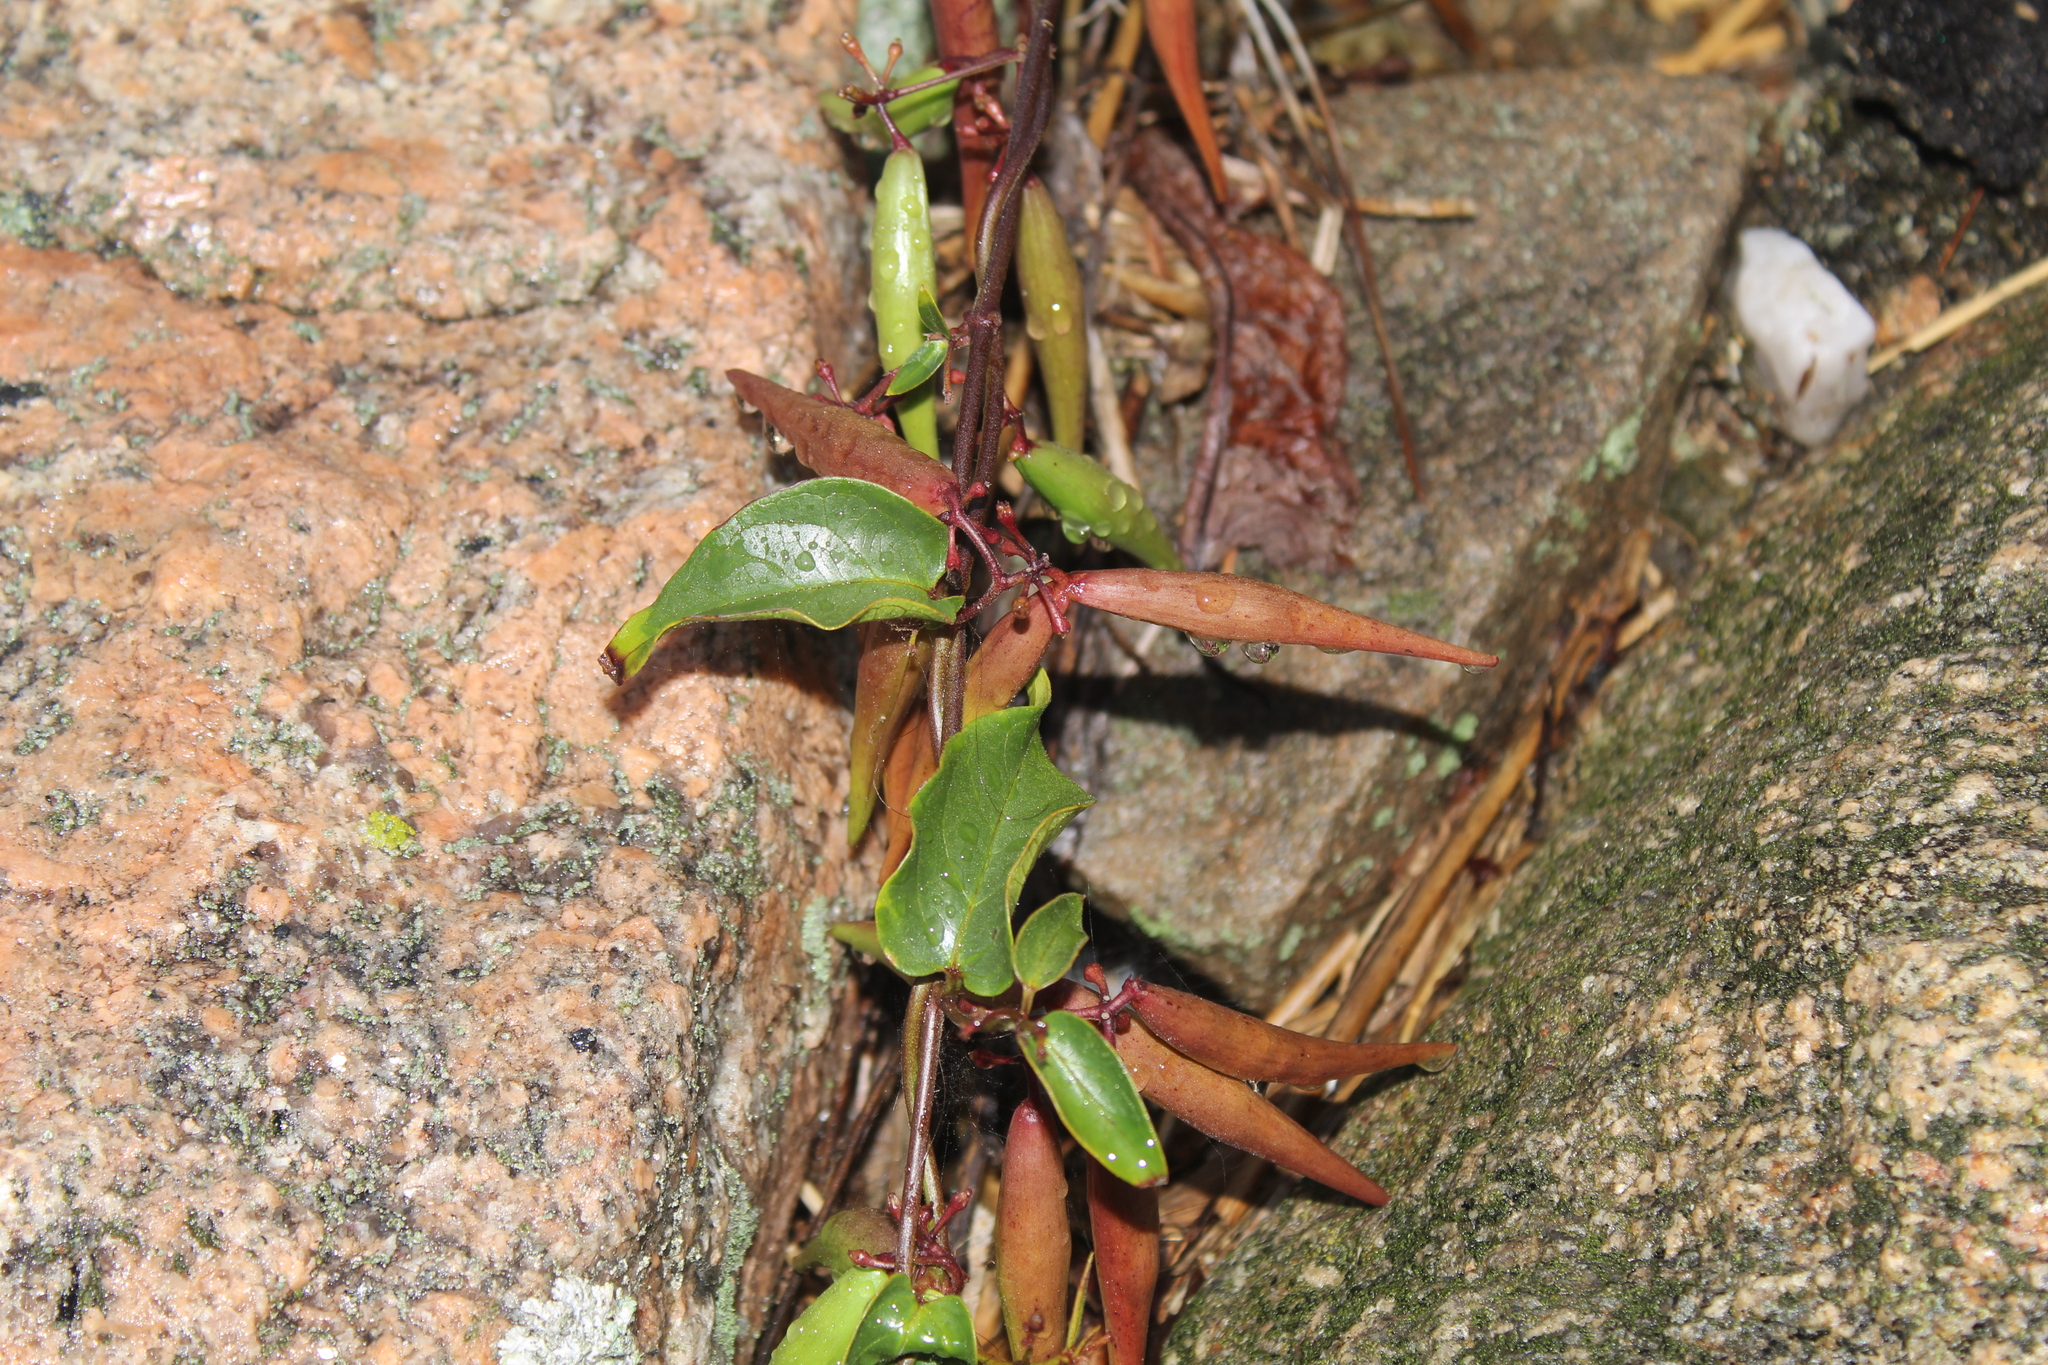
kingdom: Plantae
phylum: Tracheophyta
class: Magnoliopsida
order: Gentianales
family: Apocynaceae
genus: Vincetoxicum
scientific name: Vincetoxicum nigrum
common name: Black swallow-wort
